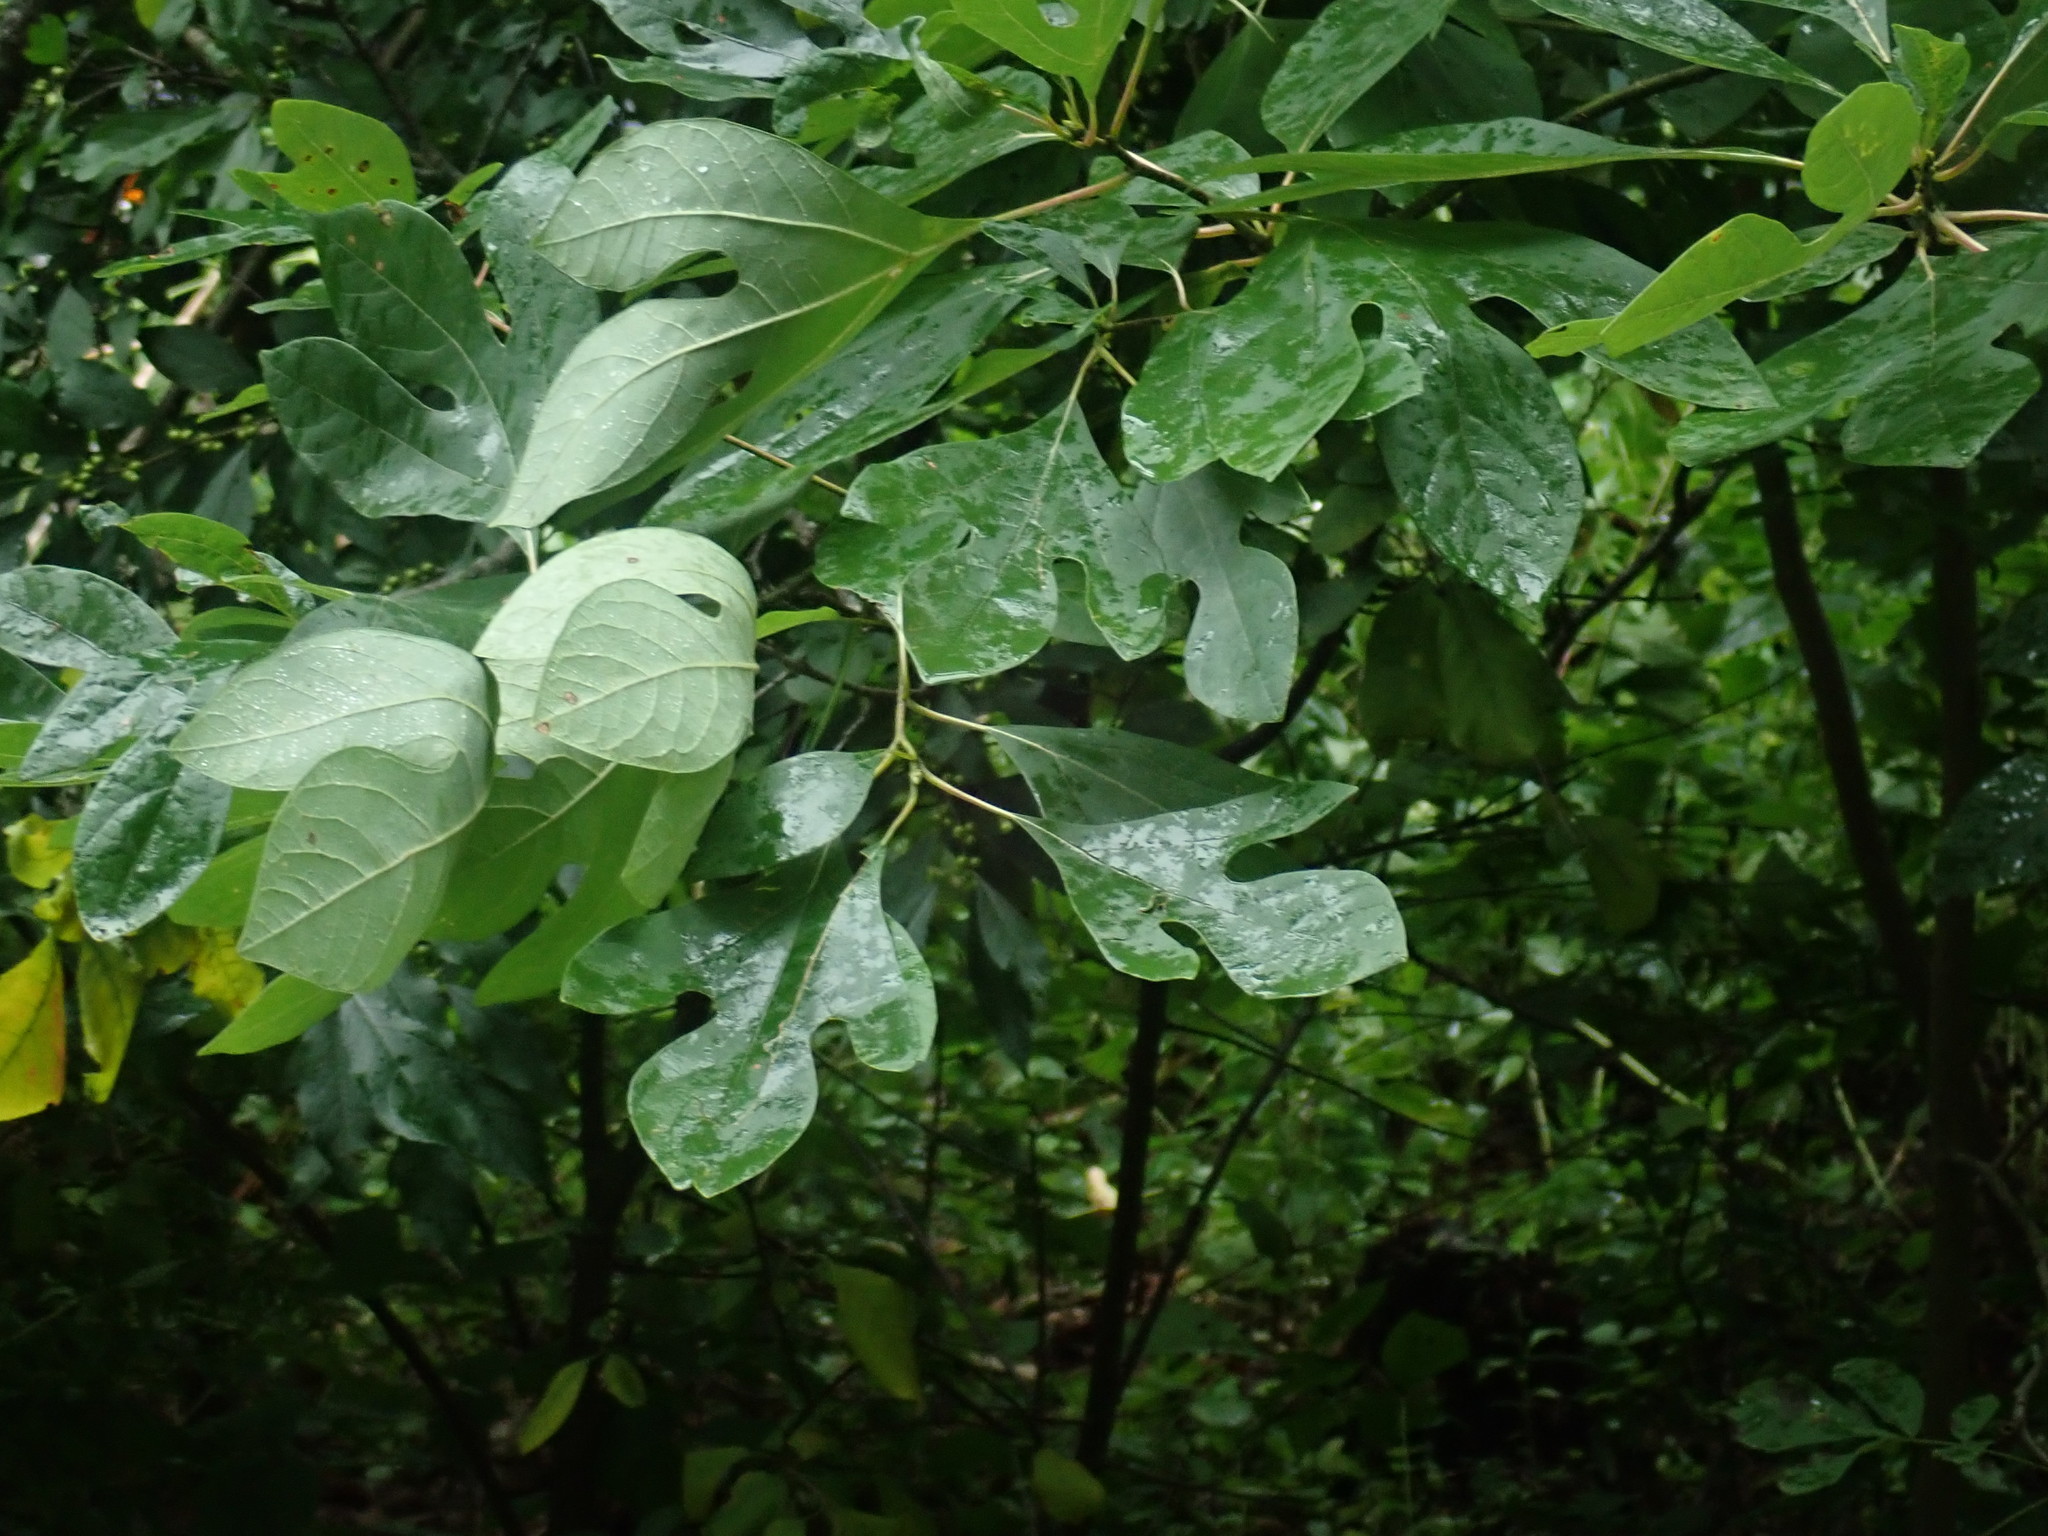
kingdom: Plantae
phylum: Tracheophyta
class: Magnoliopsida
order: Laurales
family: Lauraceae
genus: Sassafras
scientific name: Sassafras albidum
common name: Sassafras
